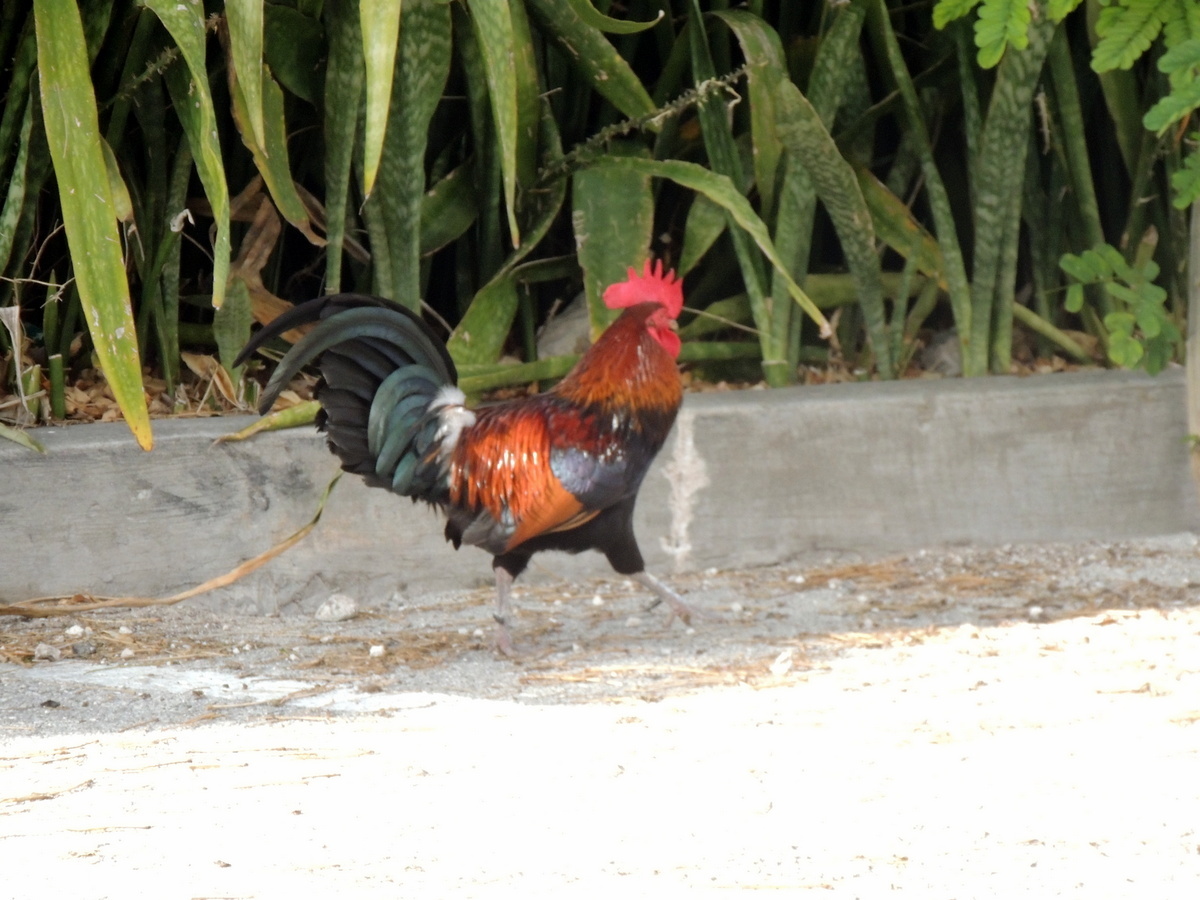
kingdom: Animalia
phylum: Chordata
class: Aves
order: Galliformes
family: Phasianidae
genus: Gallus
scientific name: Gallus gallus
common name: Red junglefowl
